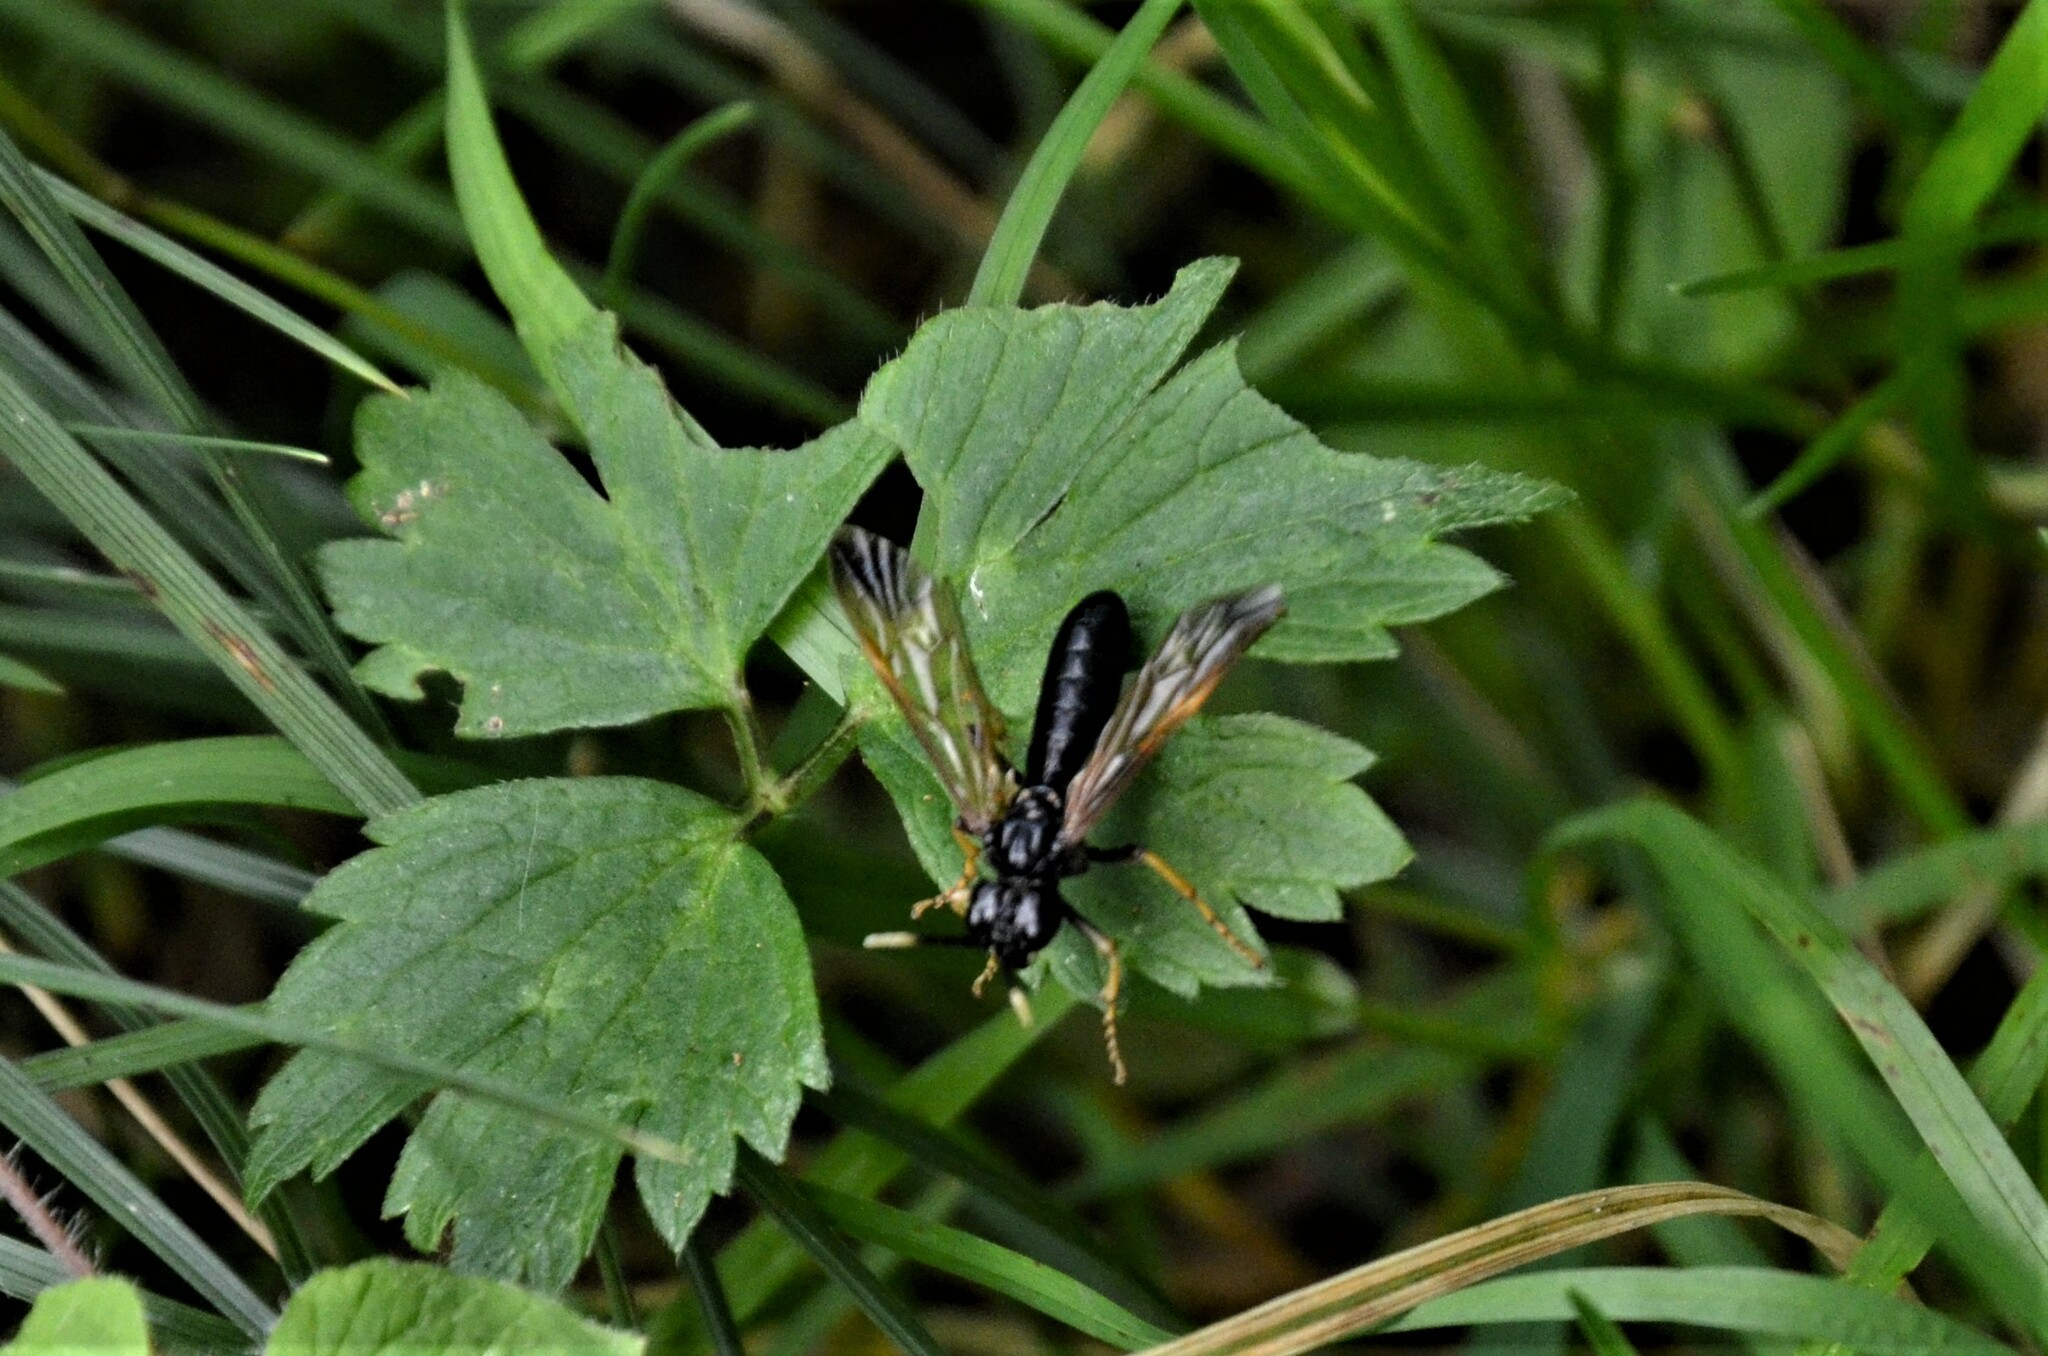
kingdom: Animalia
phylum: Arthropoda
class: Insecta
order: Hymenoptera
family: Tenthredinidae
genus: Tenthredo
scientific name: Tenthredo crassa
